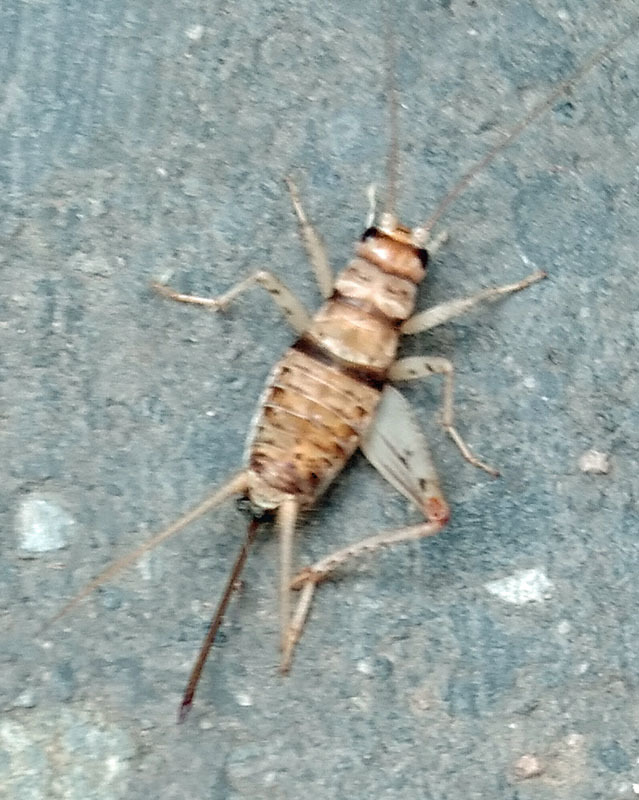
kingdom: Animalia
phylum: Arthropoda
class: Insecta
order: Orthoptera
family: Gryllidae
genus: Gryllodes
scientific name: Gryllodes sigillatus
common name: Tropical house cricket
